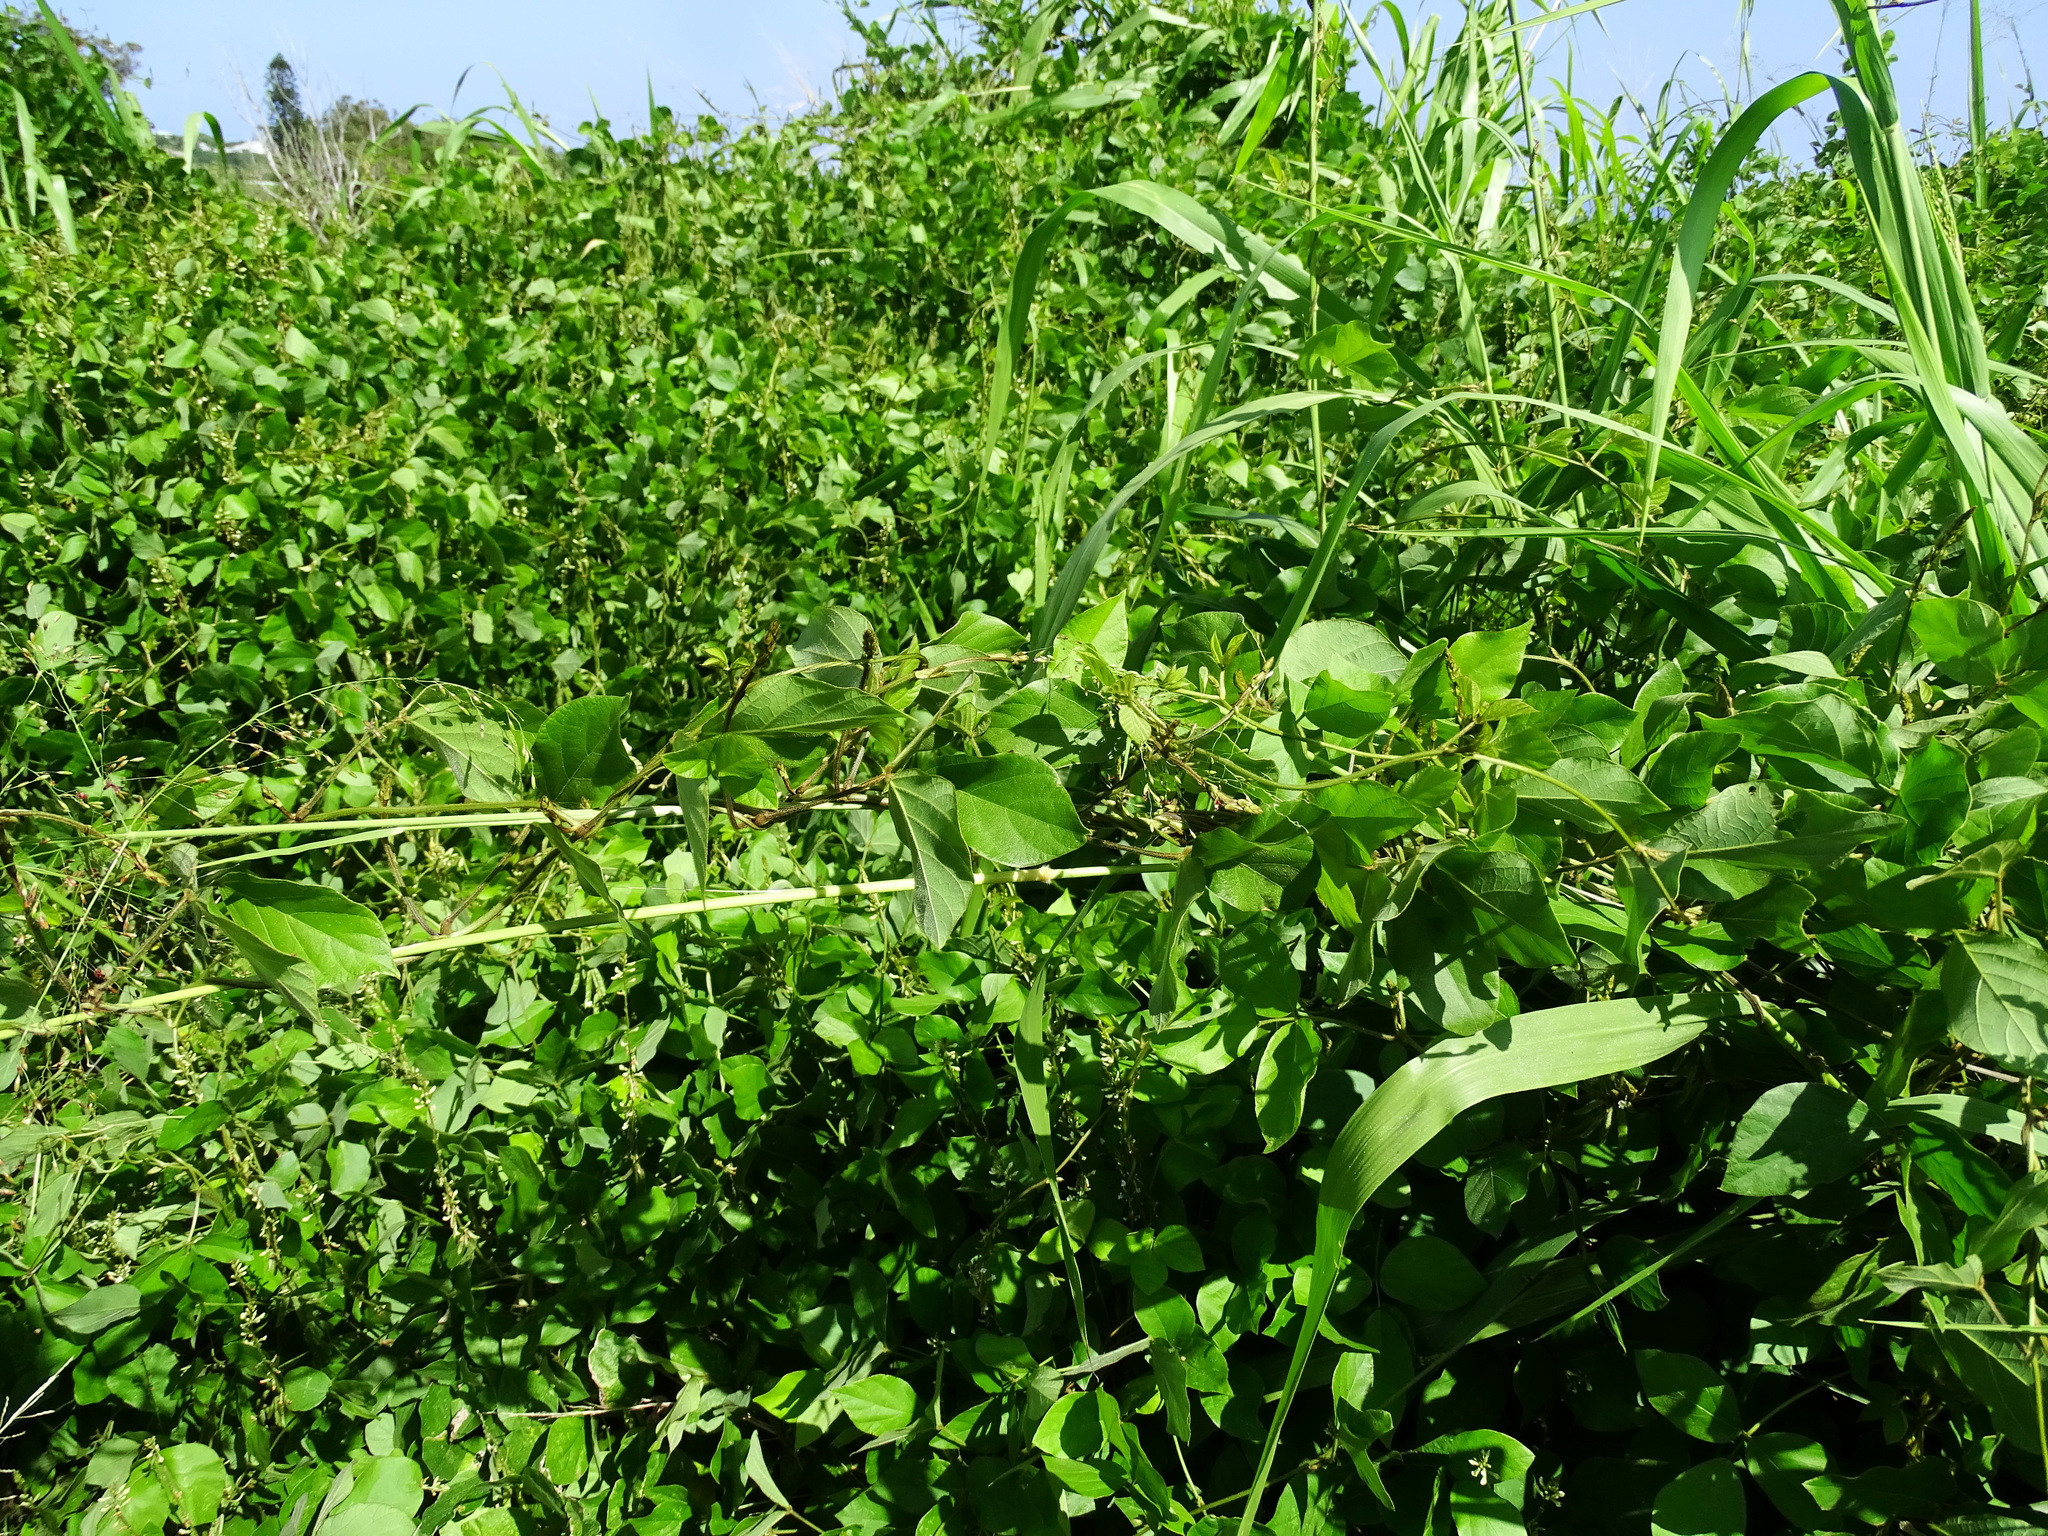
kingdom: Plantae
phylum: Tracheophyta
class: Magnoliopsida
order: Fabales
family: Fabaceae
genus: Neonotonia
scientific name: Neonotonia wightii
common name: Perennial soybean
